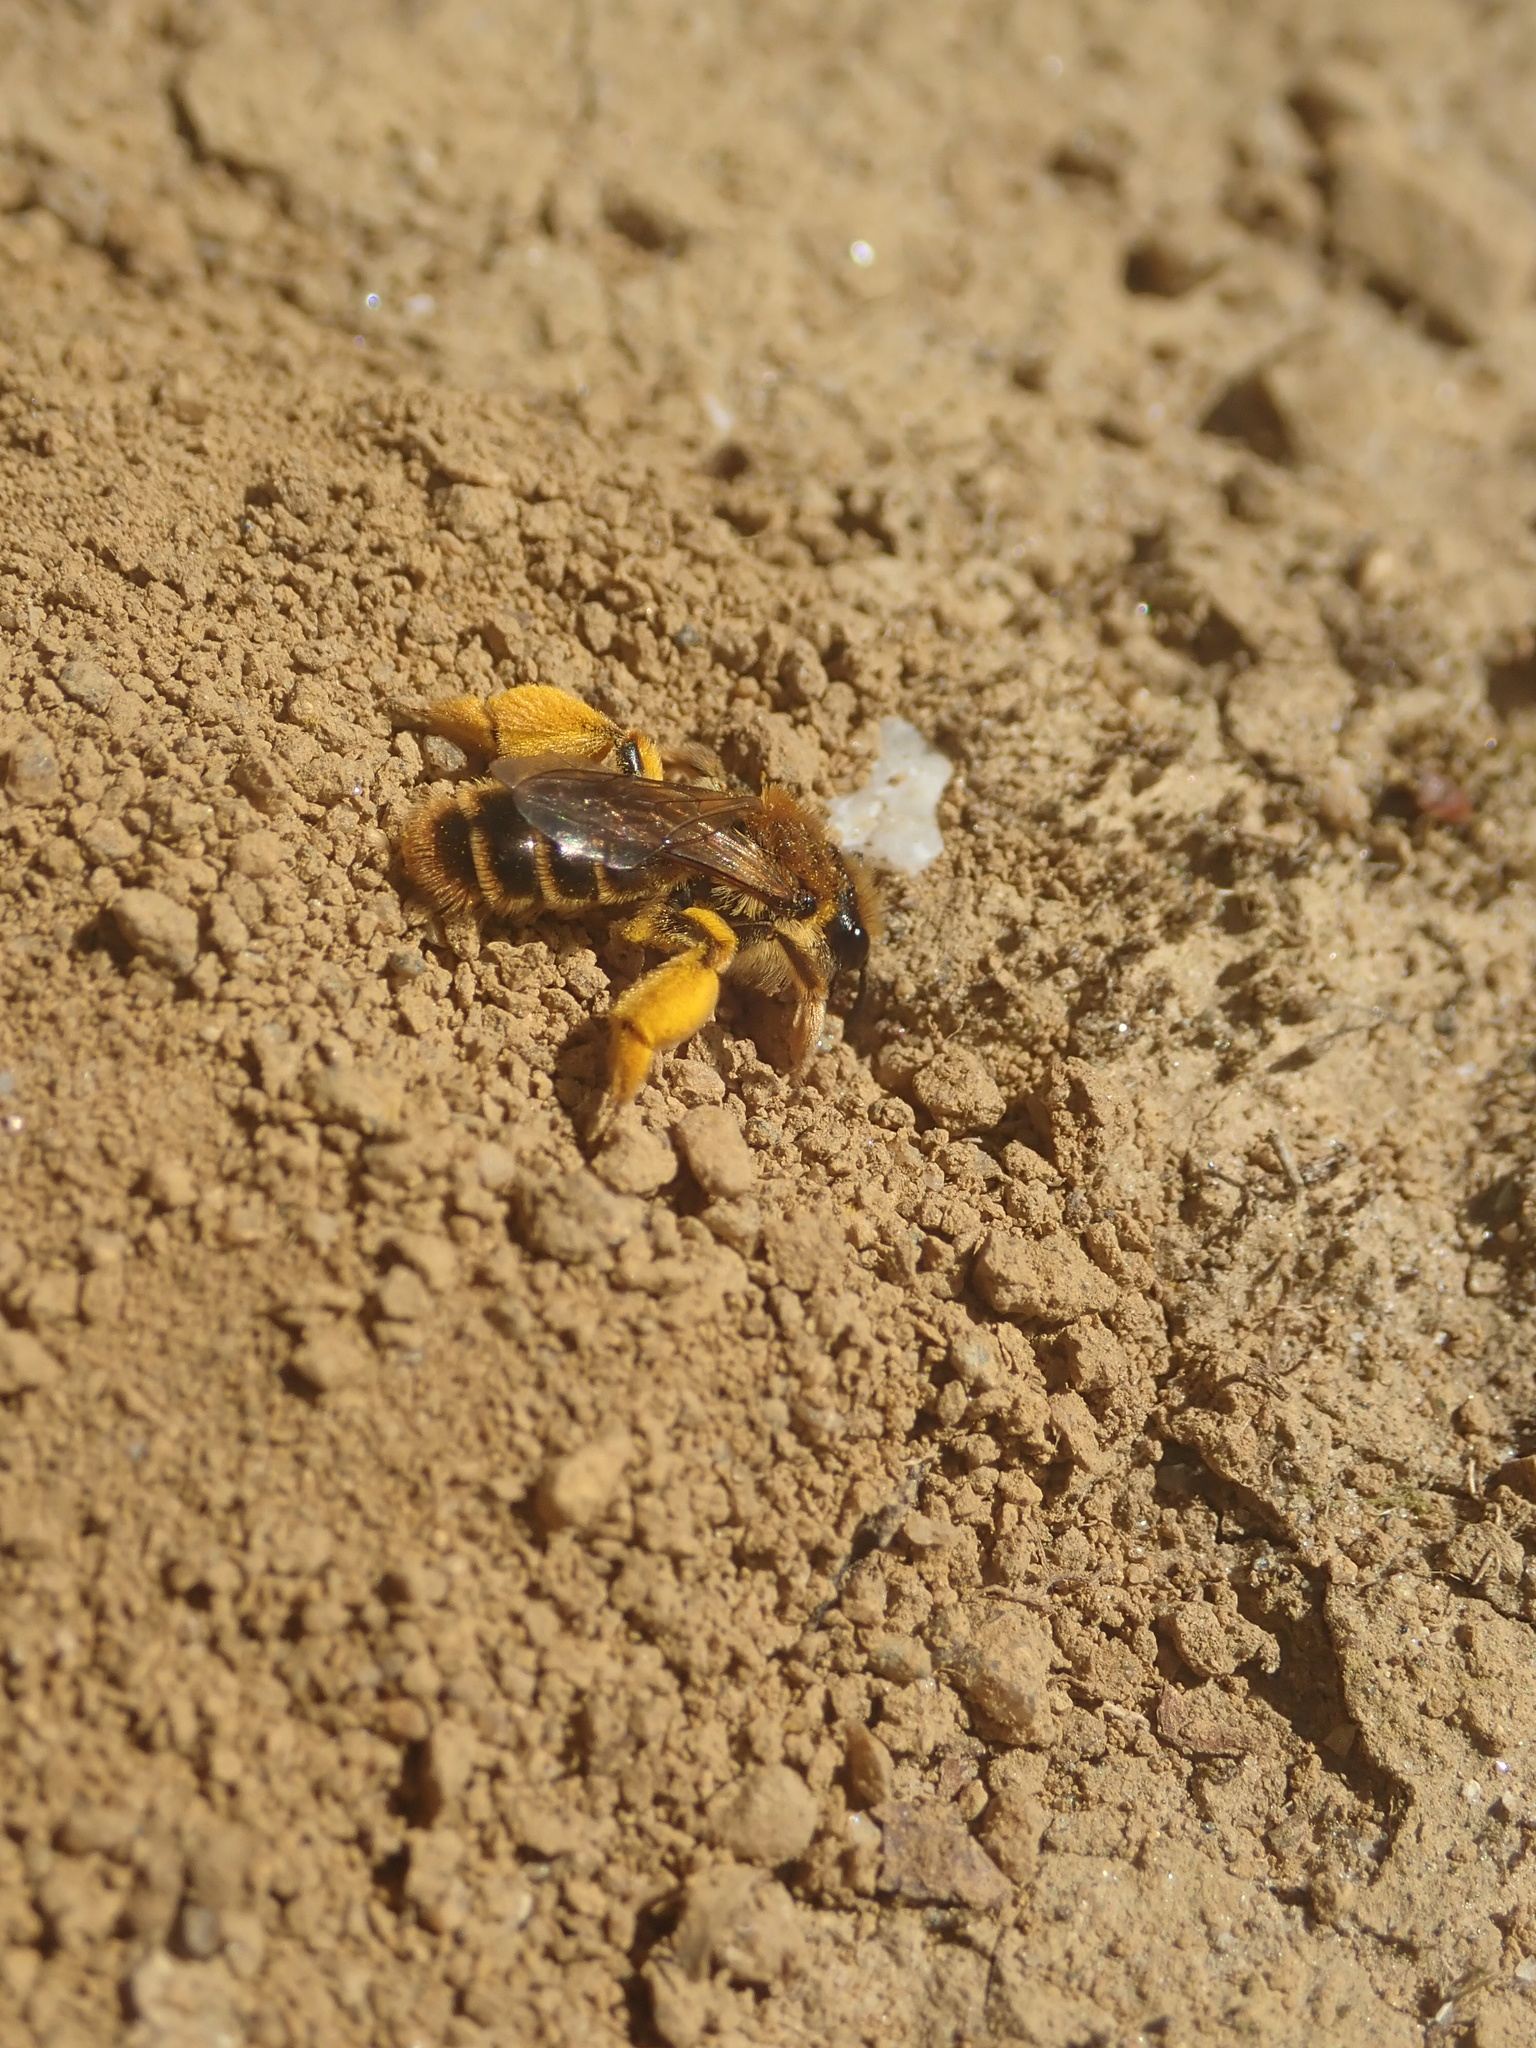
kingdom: Animalia
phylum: Arthropoda
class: Insecta
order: Hymenoptera
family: Colletidae
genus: Leioproctus
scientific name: Leioproctus fulvescens
